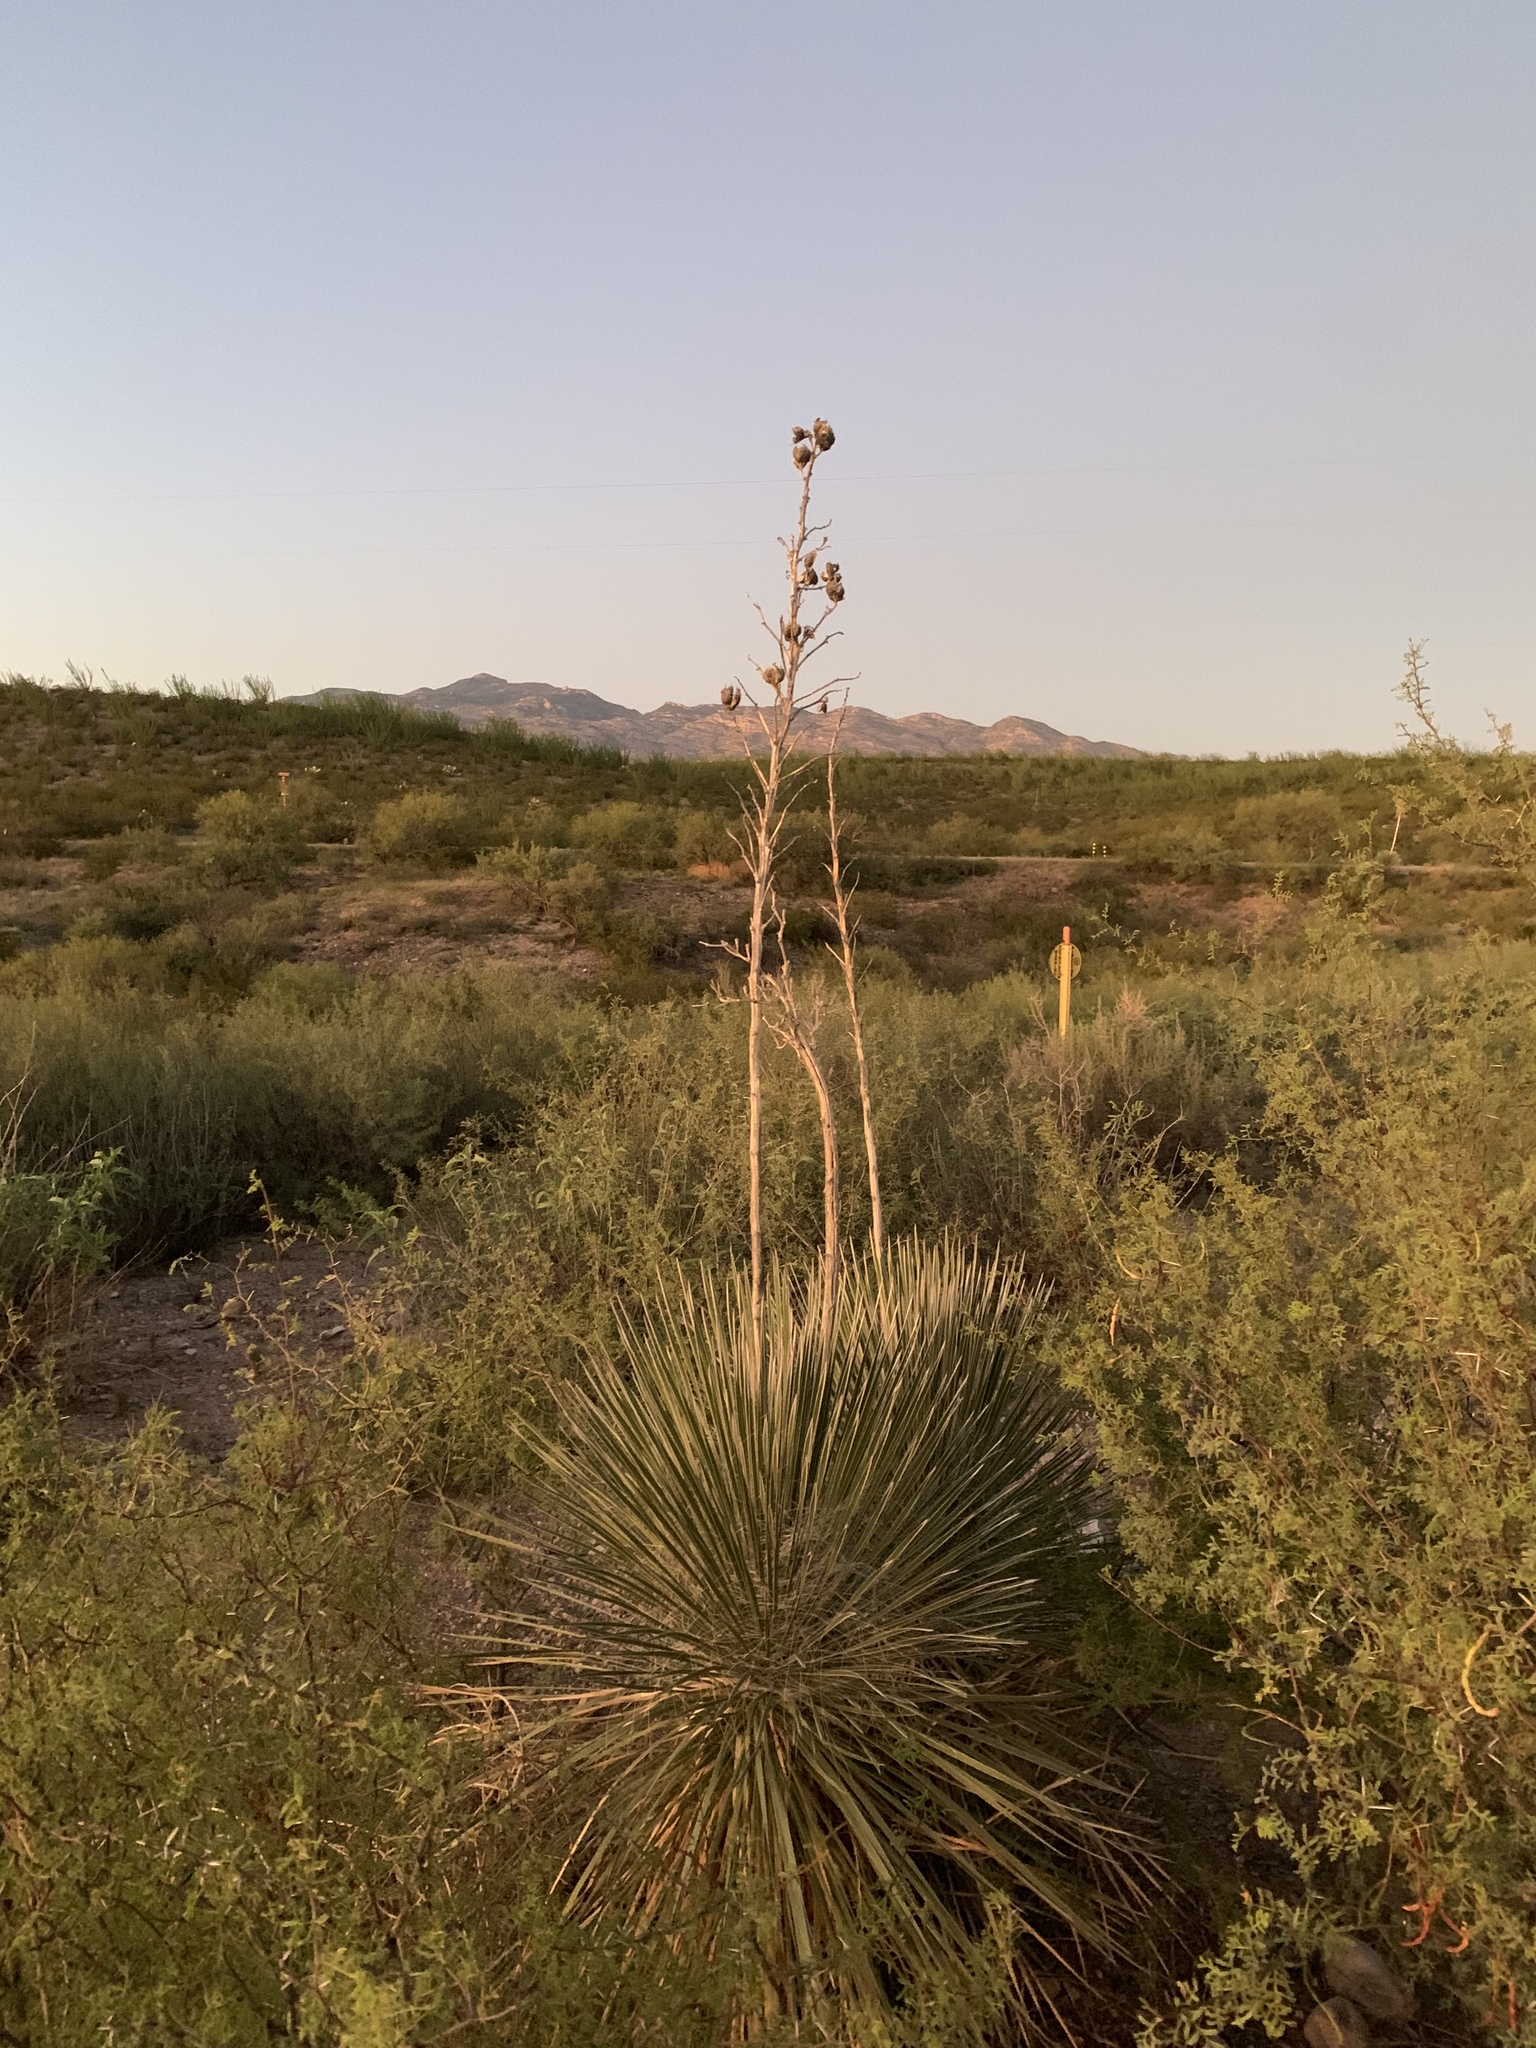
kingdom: Plantae
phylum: Tracheophyta
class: Liliopsida
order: Asparagales
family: Asparagaceae
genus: Yucca
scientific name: Yucca elata
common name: Palmella
